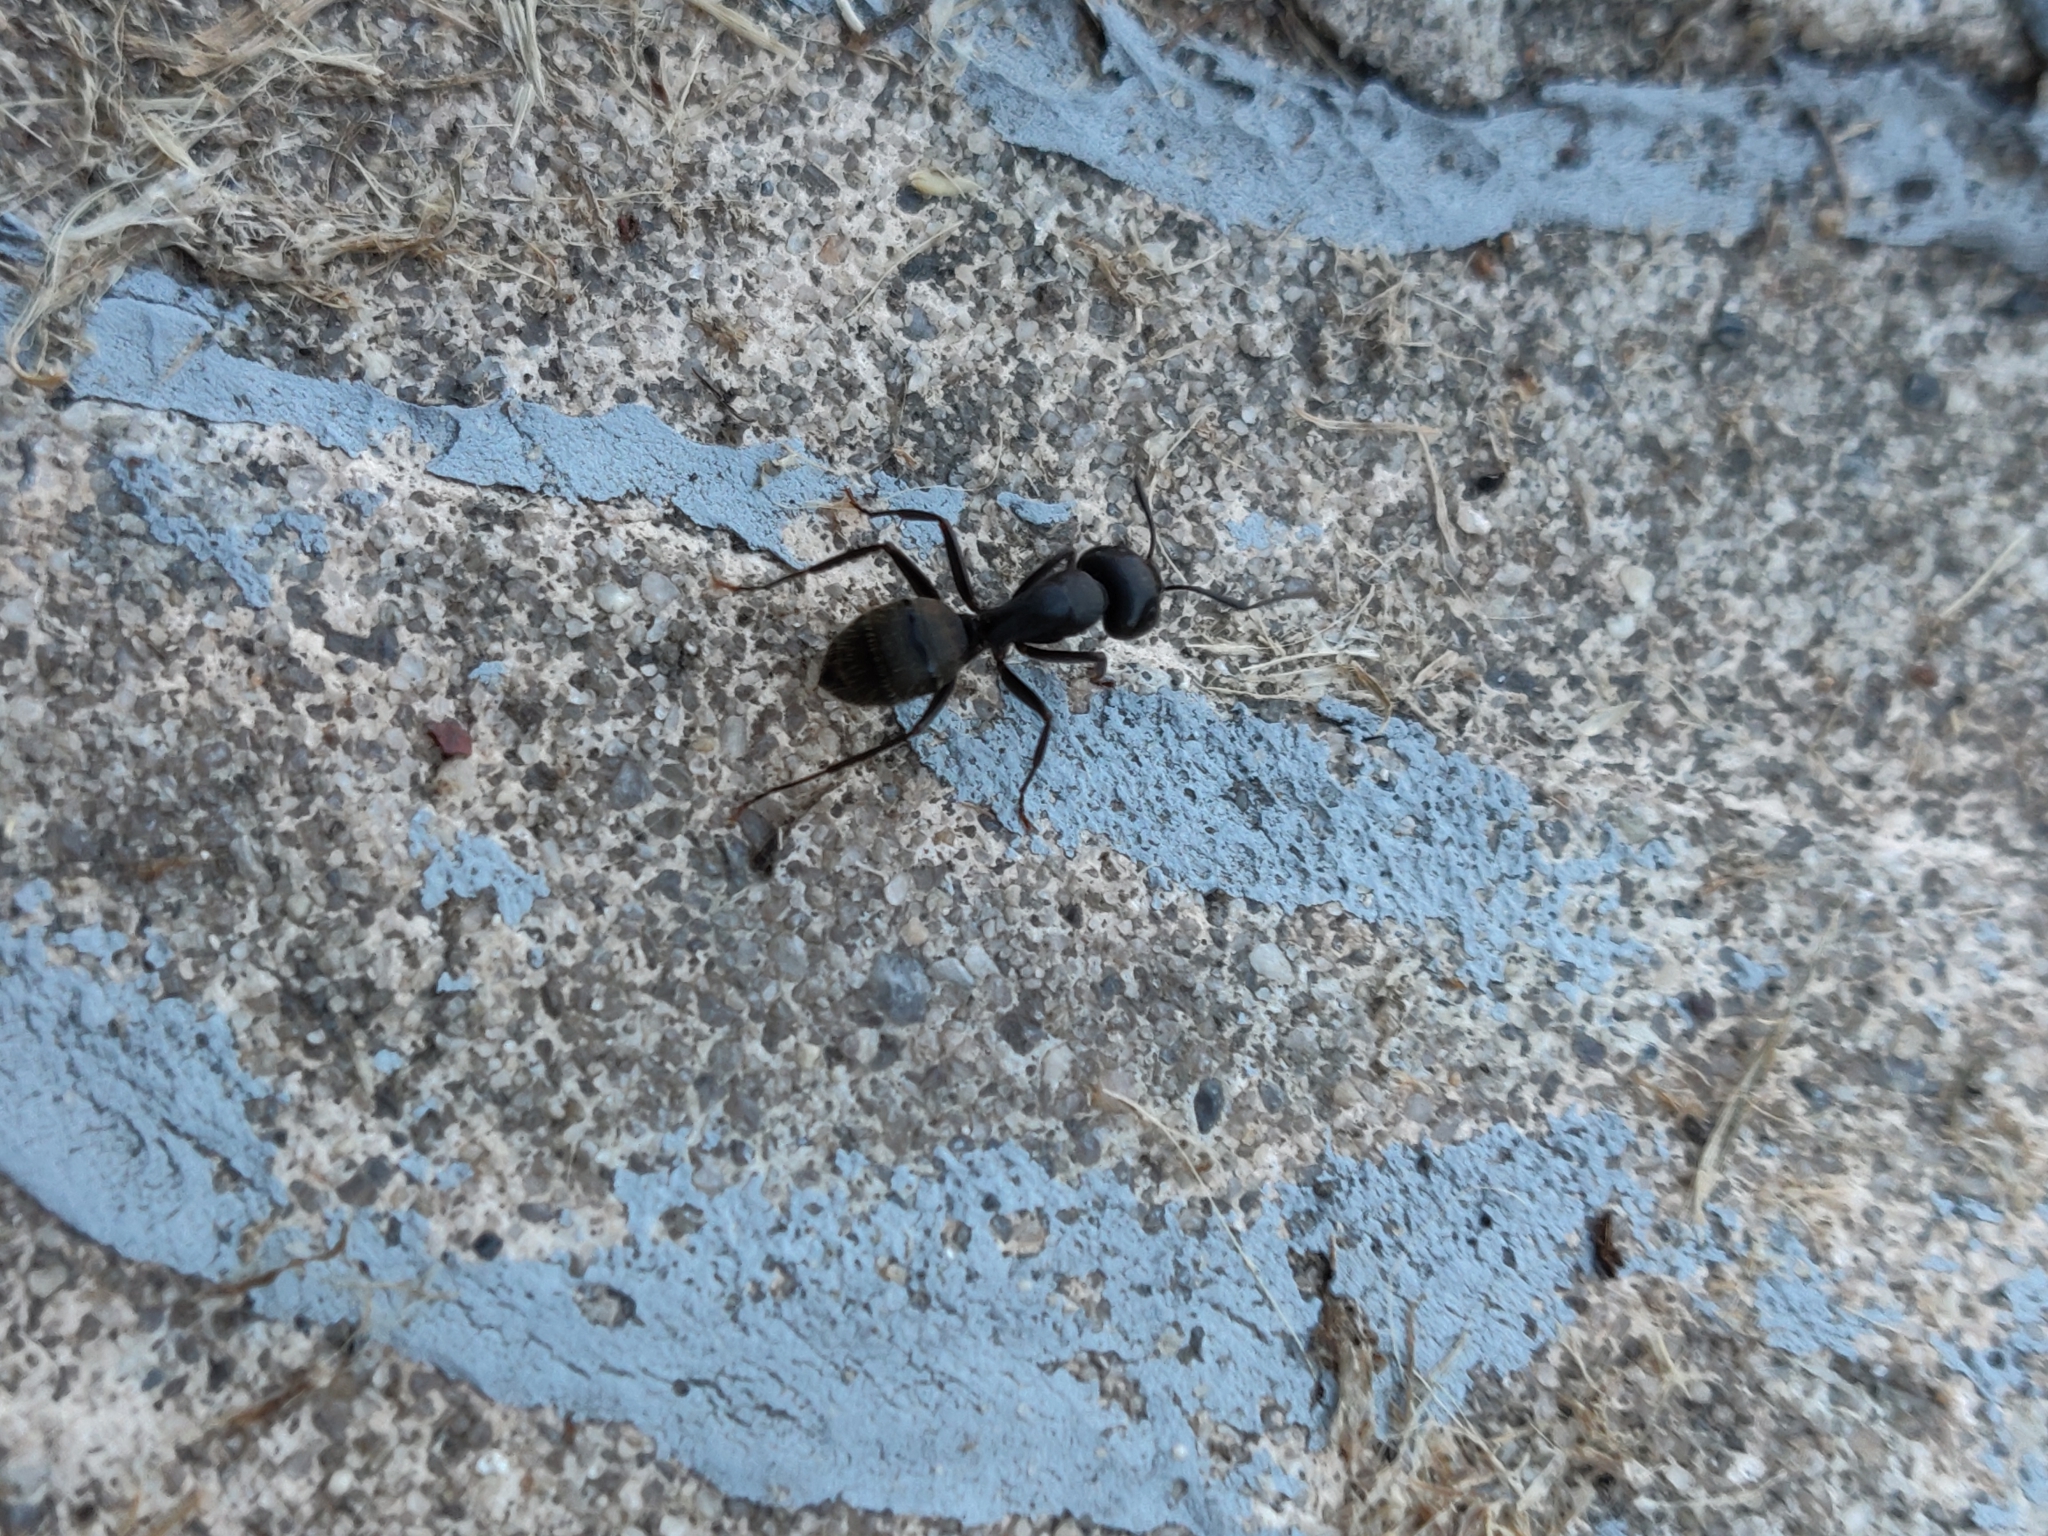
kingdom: Animalia
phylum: Arthropoda
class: Insecta
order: Hymenoptera
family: Formicidae
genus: Camponotus
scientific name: Camponotus pennsylvanicus
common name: Black carpenter ant
